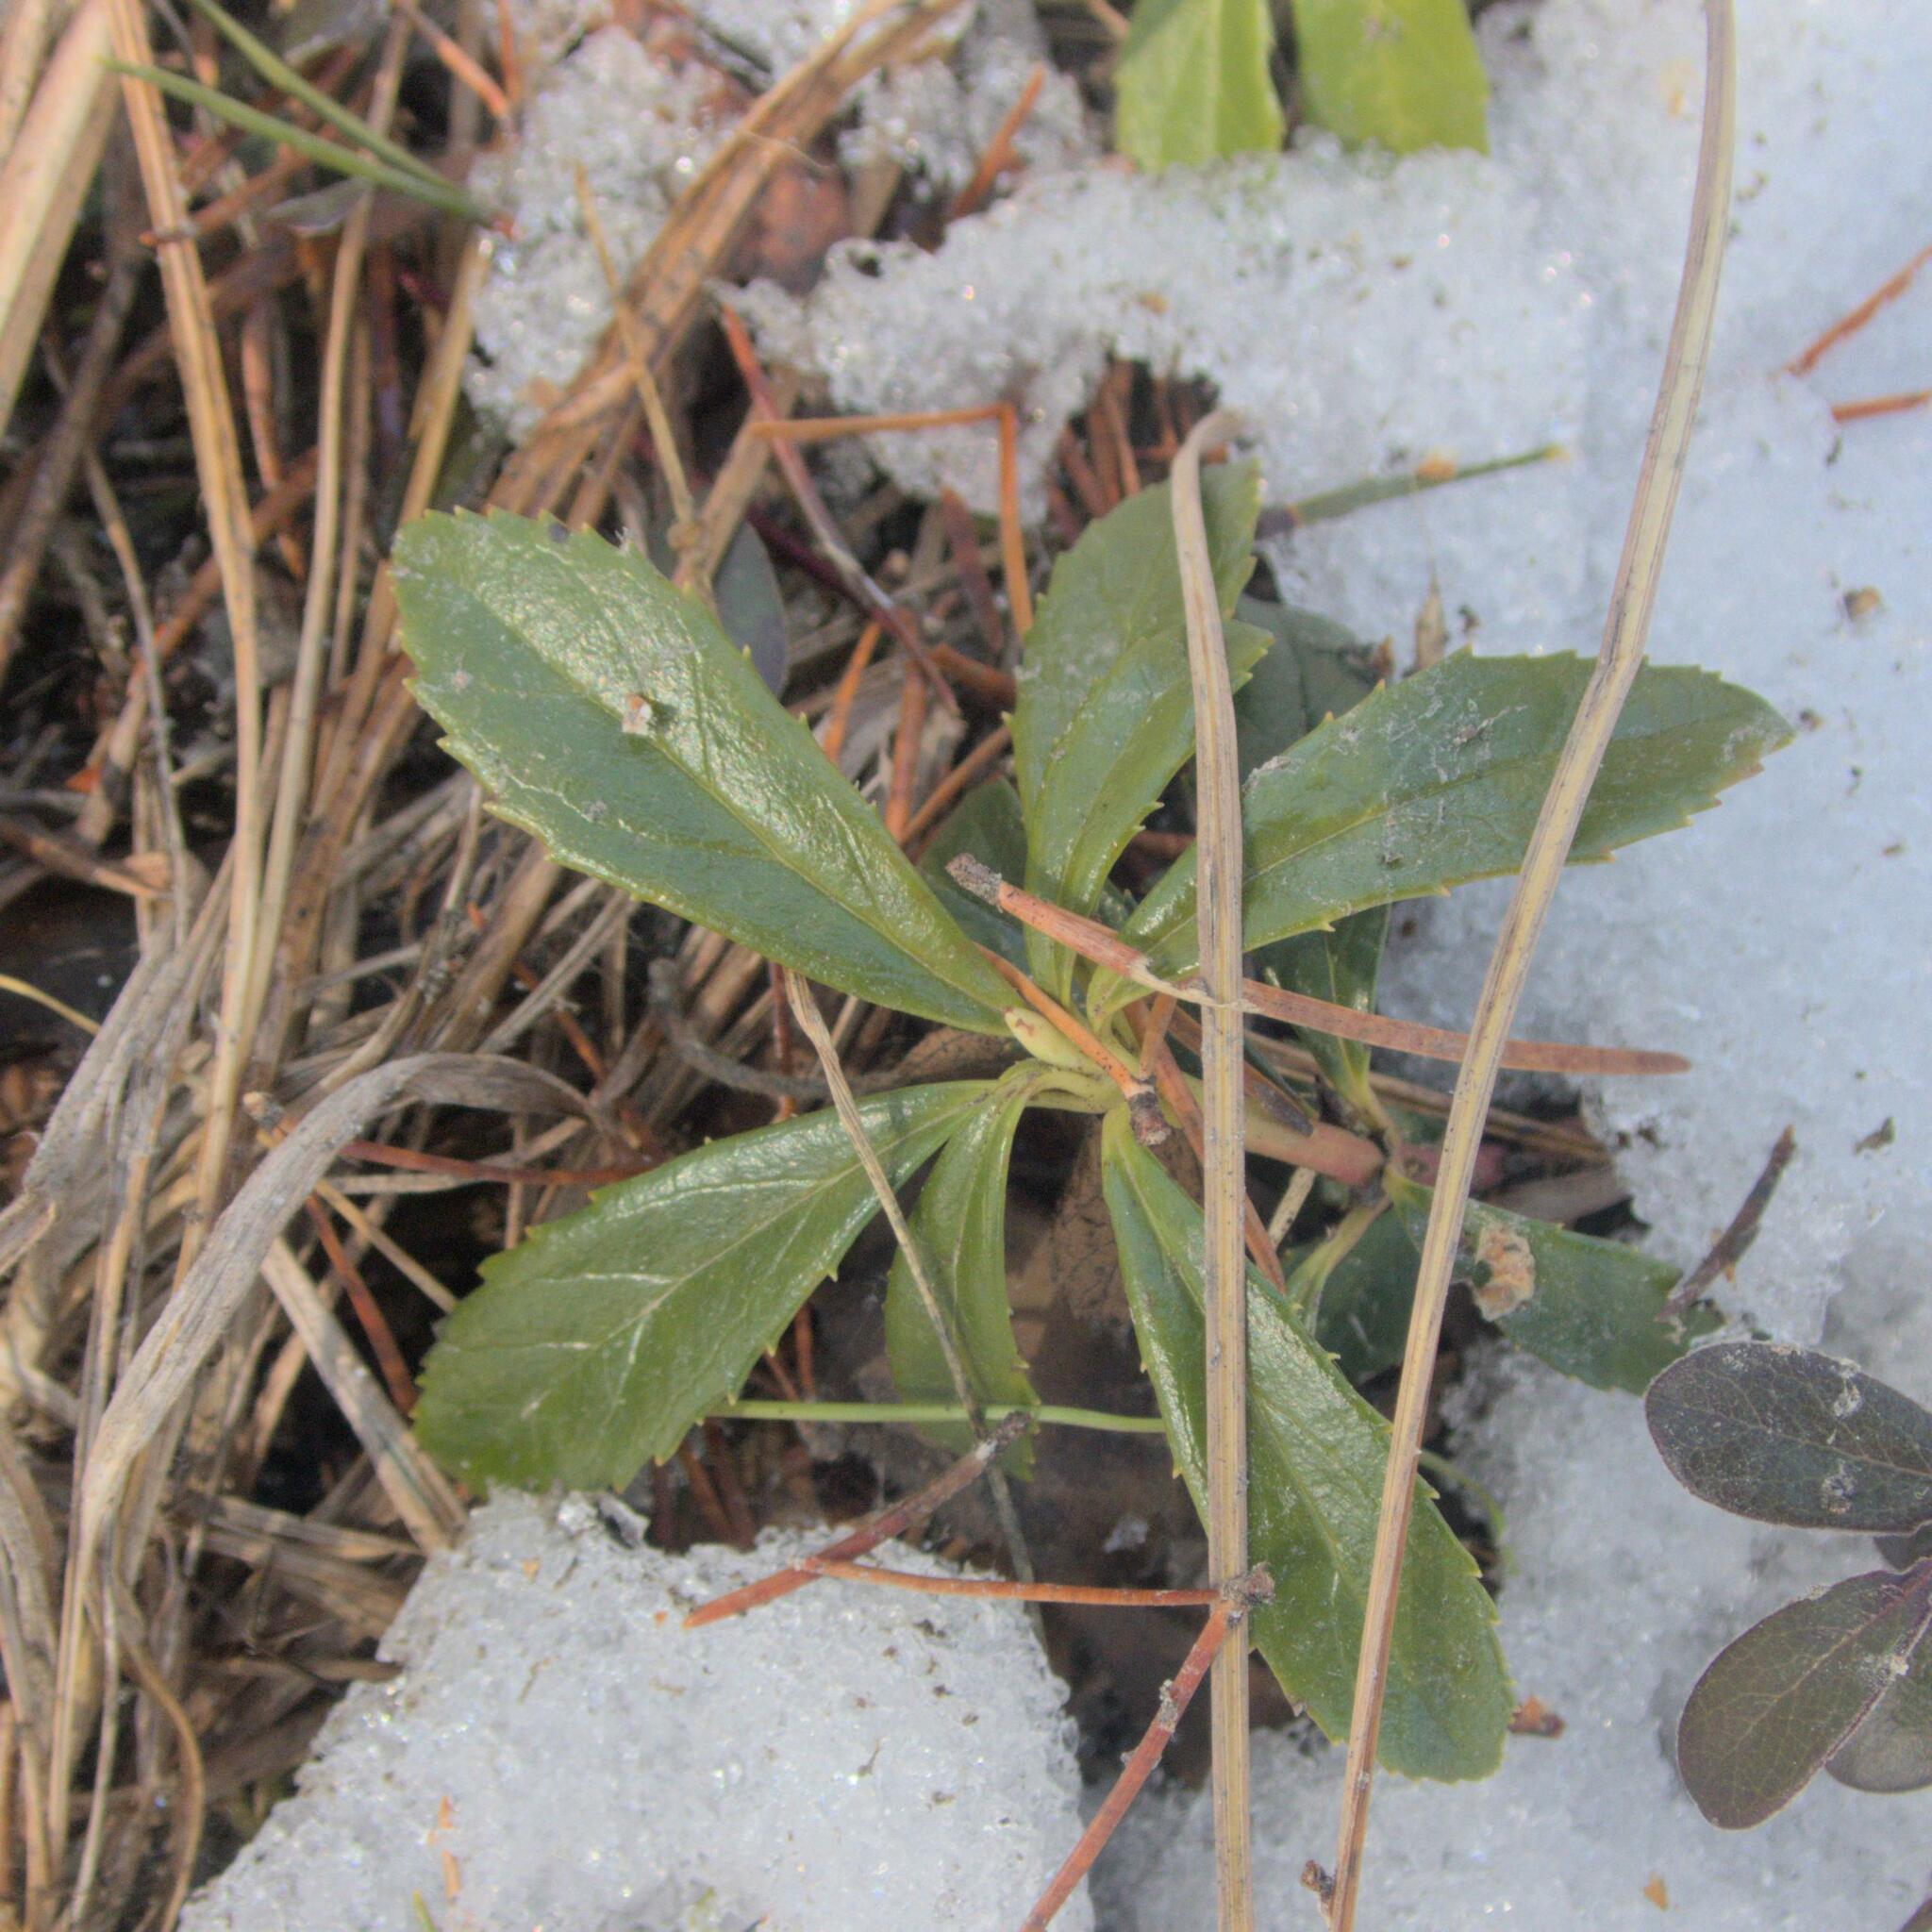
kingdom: Plantae
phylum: Tracheophyta
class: Magnoliopsida
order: Ericales
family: Ericaceae
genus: Chimaphila
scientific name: Chimaphila umbellata
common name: Pipsissewa
